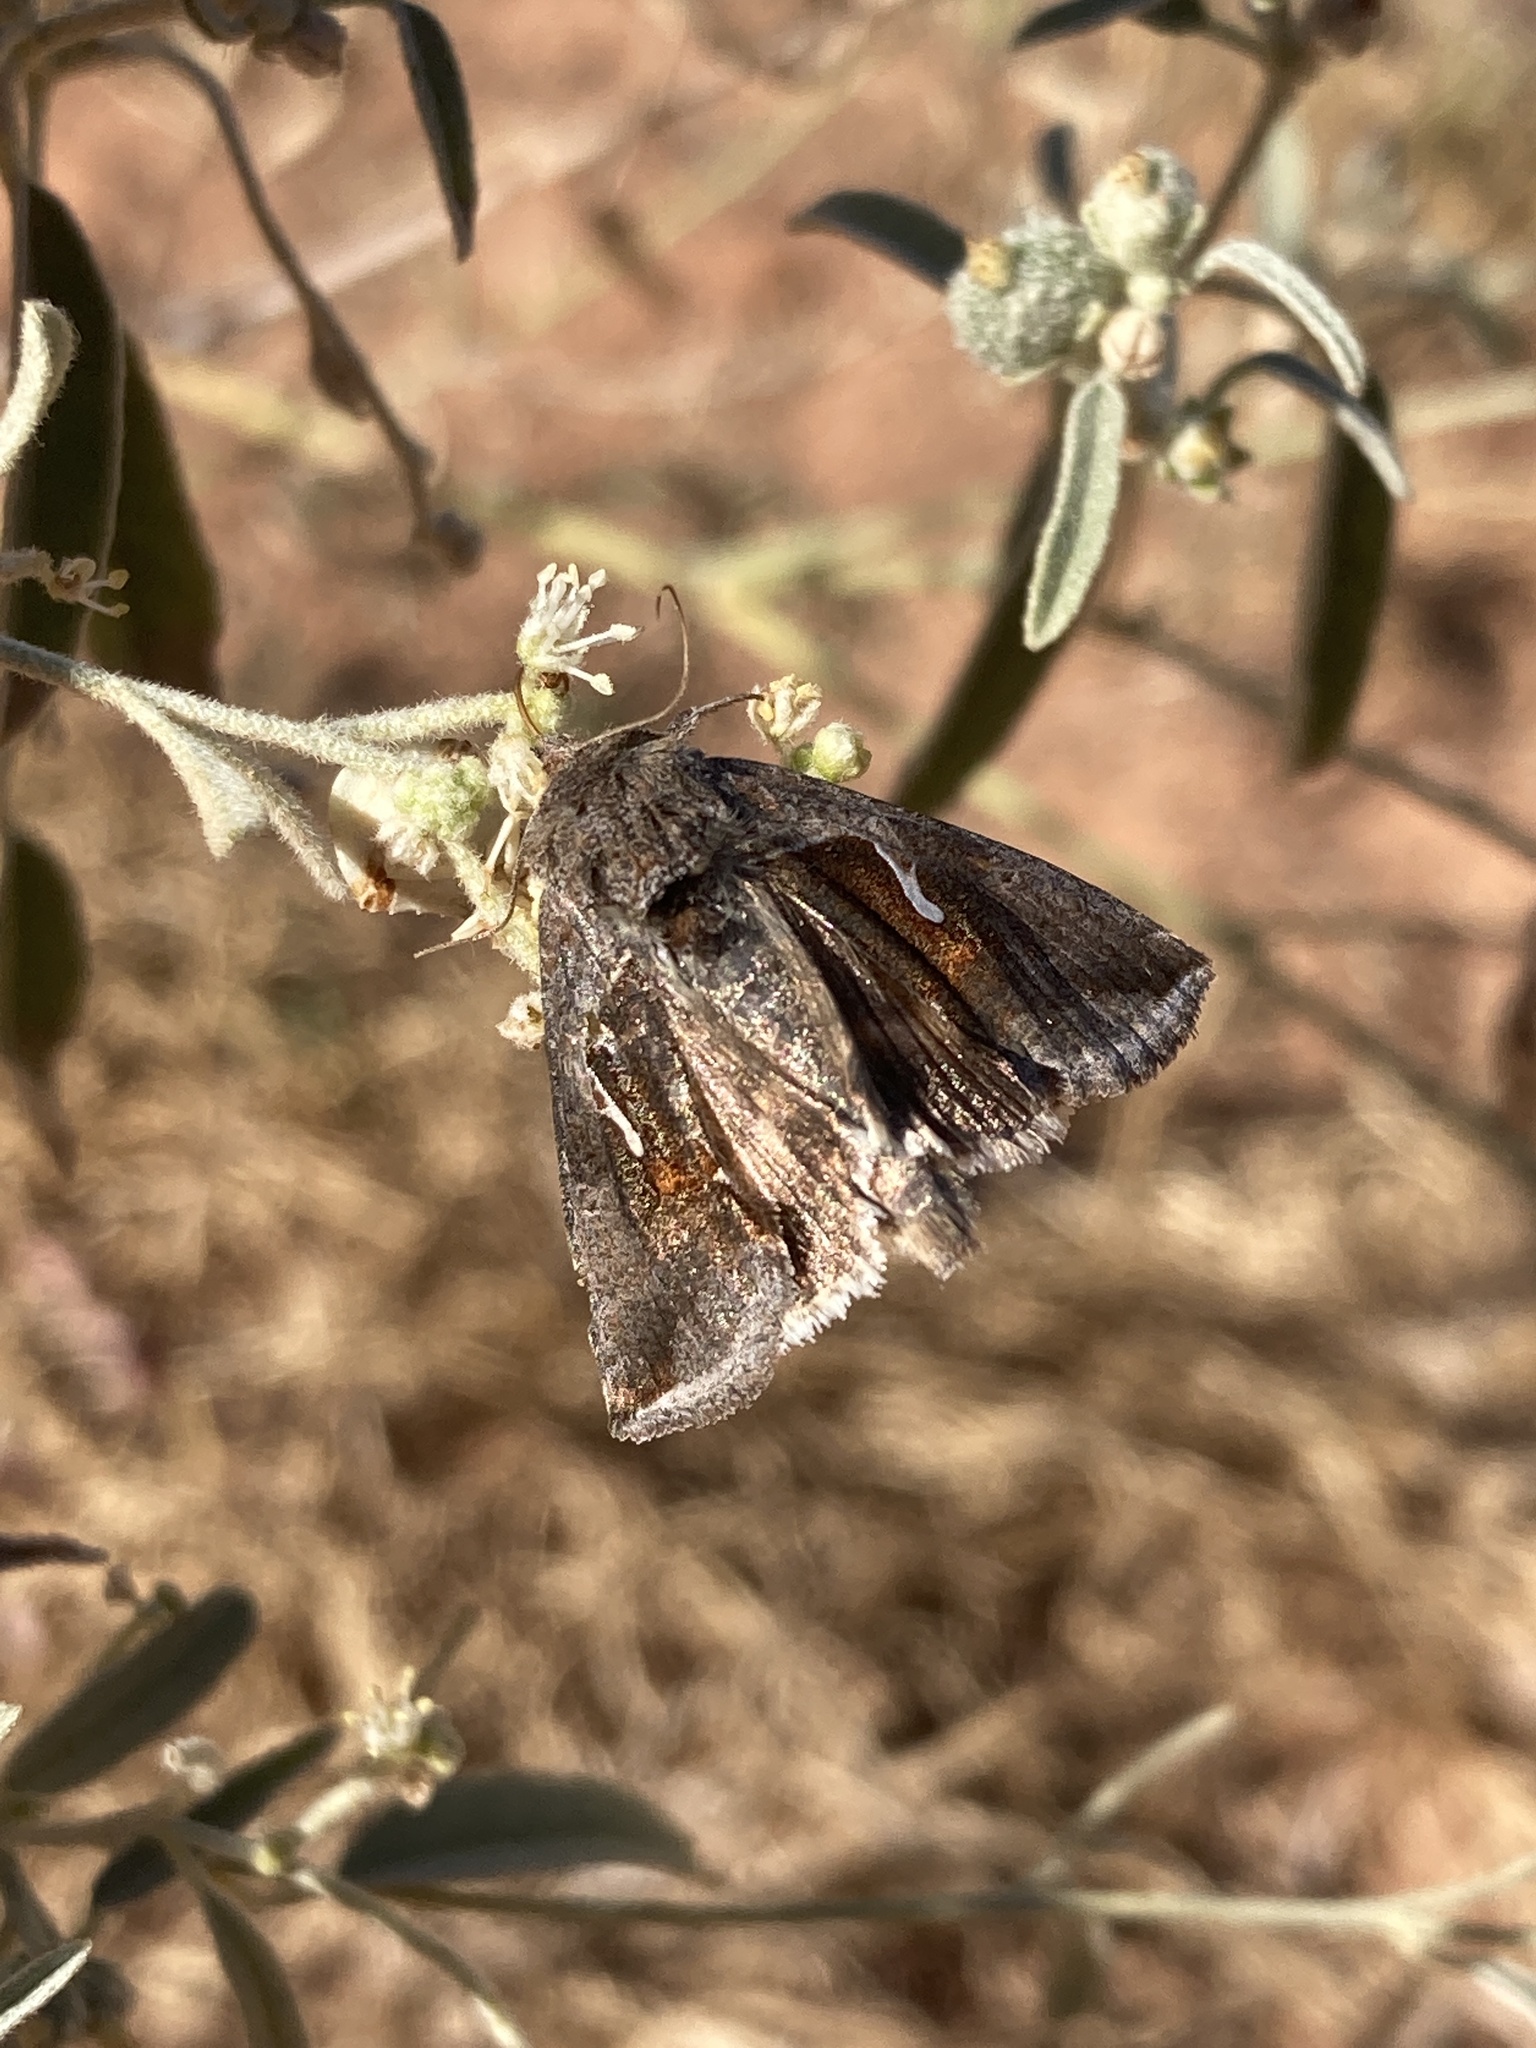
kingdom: Animalia
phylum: Arthropoda
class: Insecta
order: Lepidoptera
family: Noctuidae
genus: Anagrapha
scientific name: Anagrapha falcifera
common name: Celery looper
